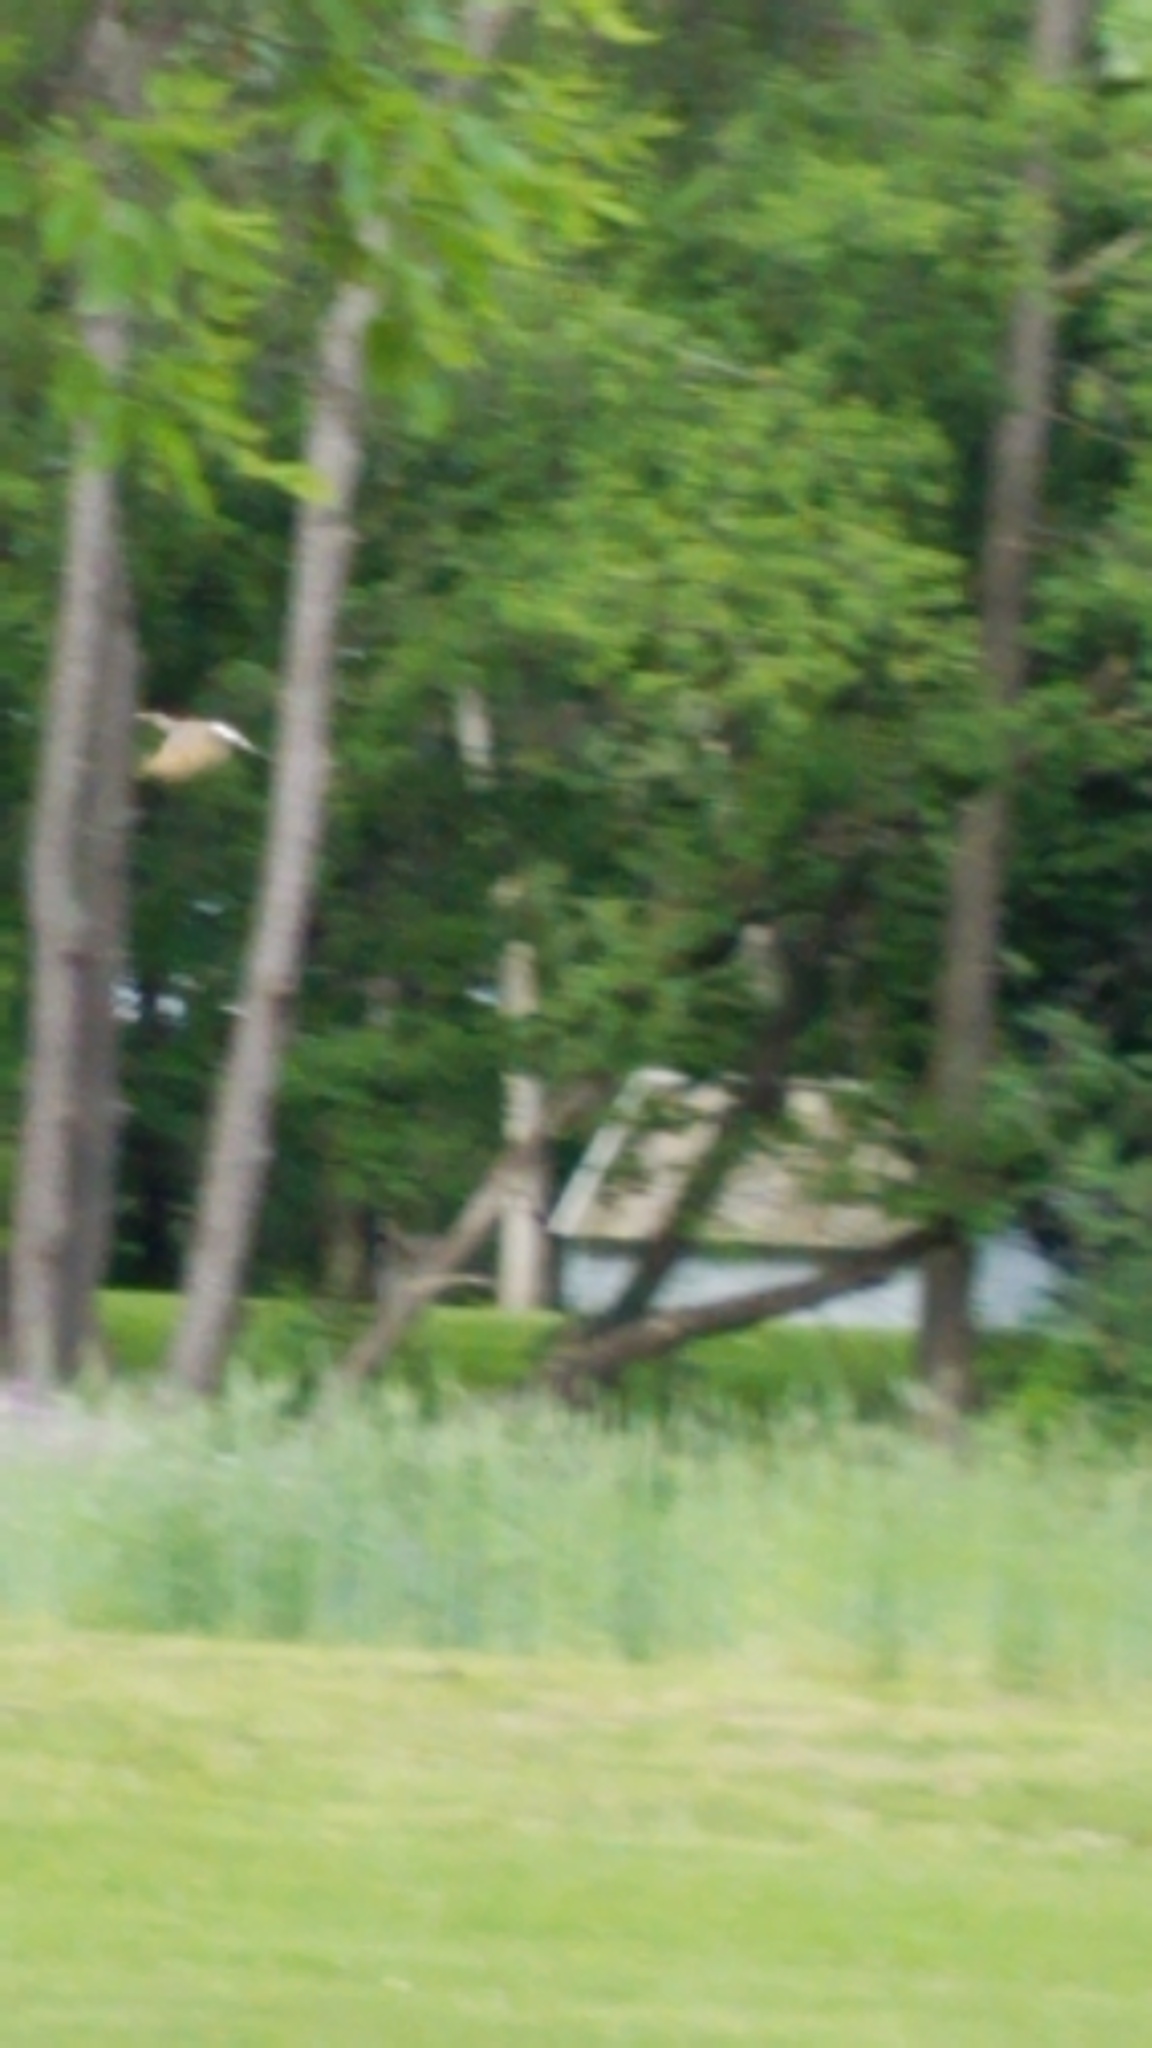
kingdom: Animalia
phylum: Chordata
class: Aves
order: Piciformes
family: Picidae
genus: Colaptes
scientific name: Colaptes auratus
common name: Northern flicker
